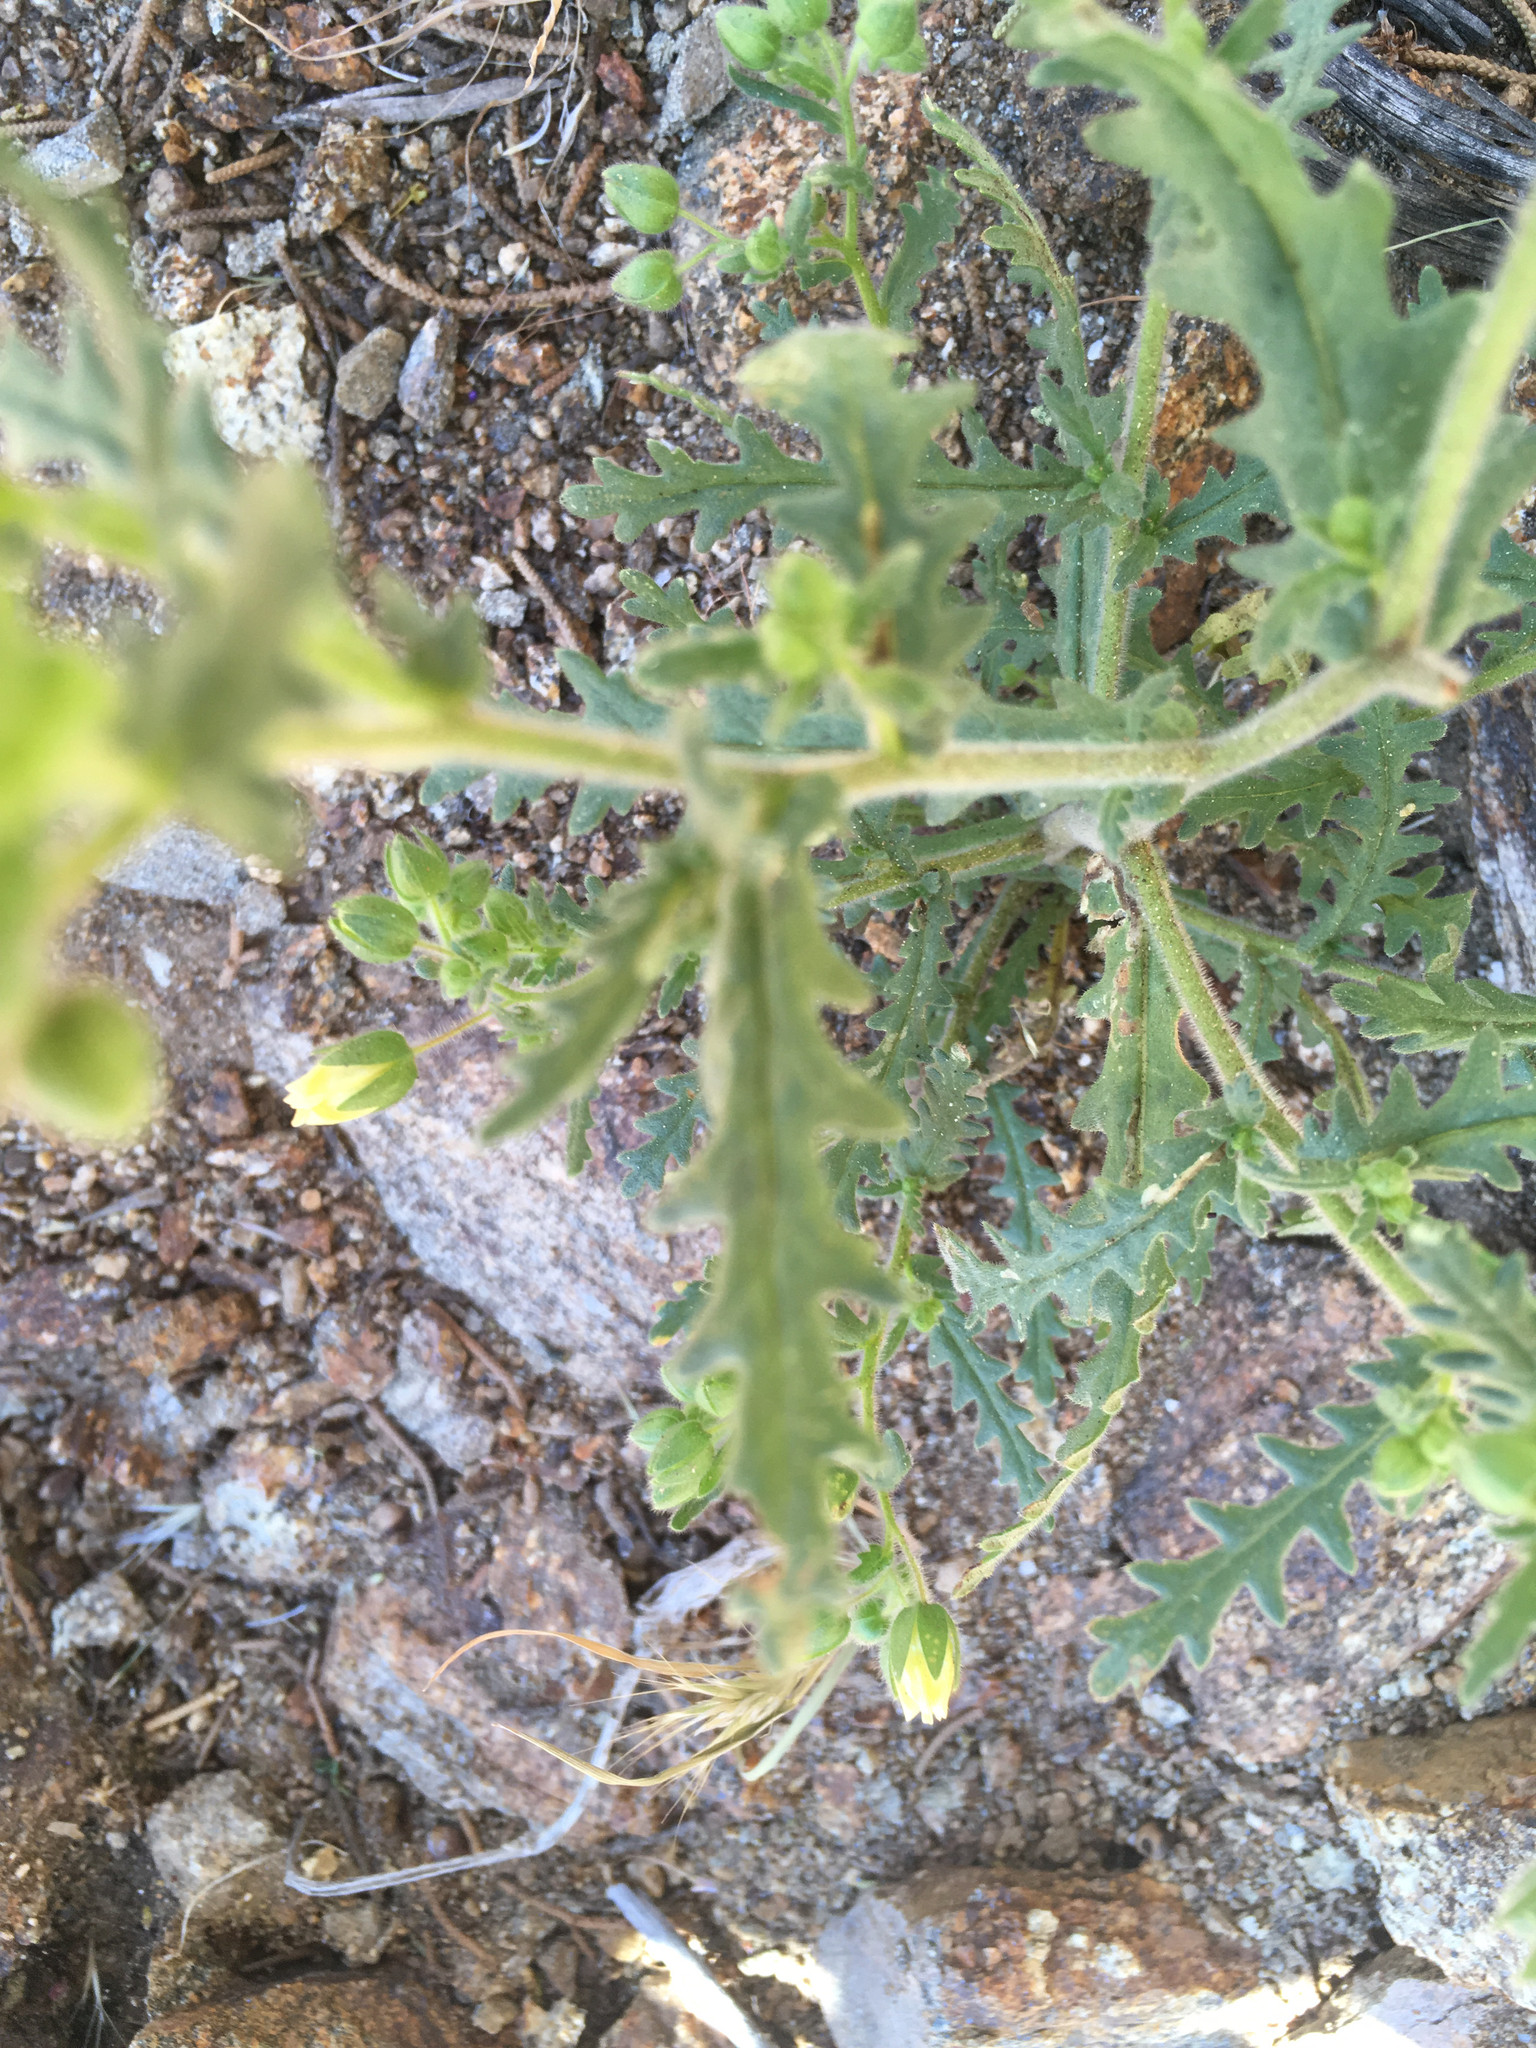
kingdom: Plantae
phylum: Tracheophyta
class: Magnoliopsida
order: Boraginales
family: Hydrophyllaceae
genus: Emmenanthe
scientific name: Emmenanthe penduliflora
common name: Whispering-bells
